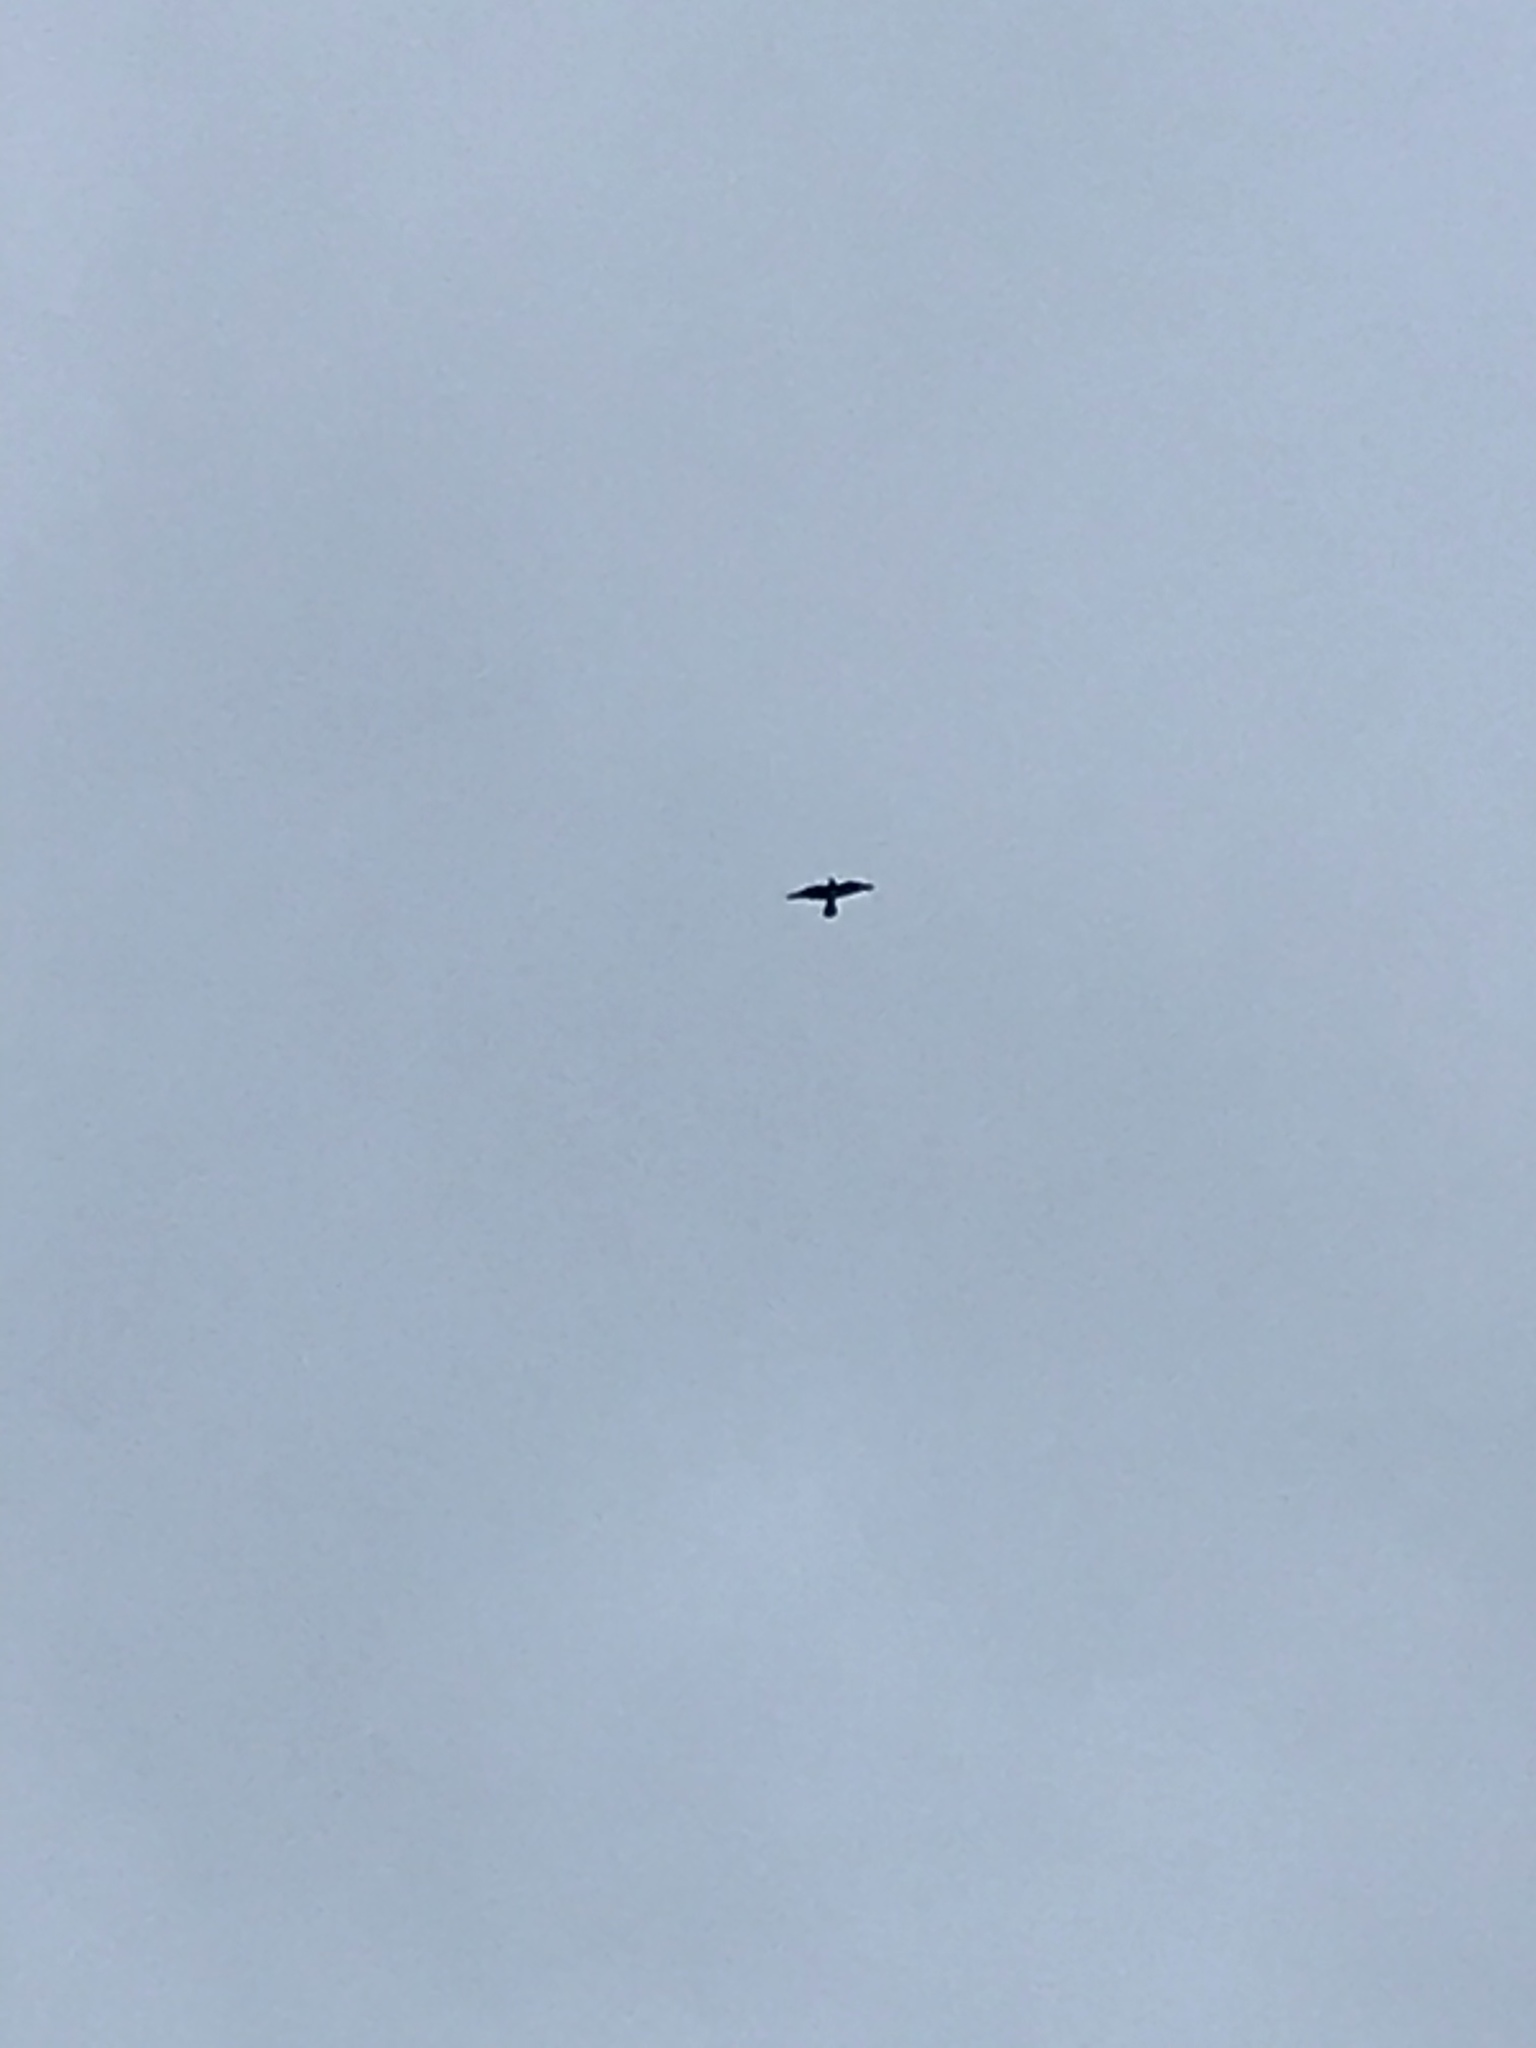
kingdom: Animalia
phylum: Chordata
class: Aves
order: Falconiformes
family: Falconidae
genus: Falco
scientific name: Falco peregrinus
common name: Peregrine falcon
